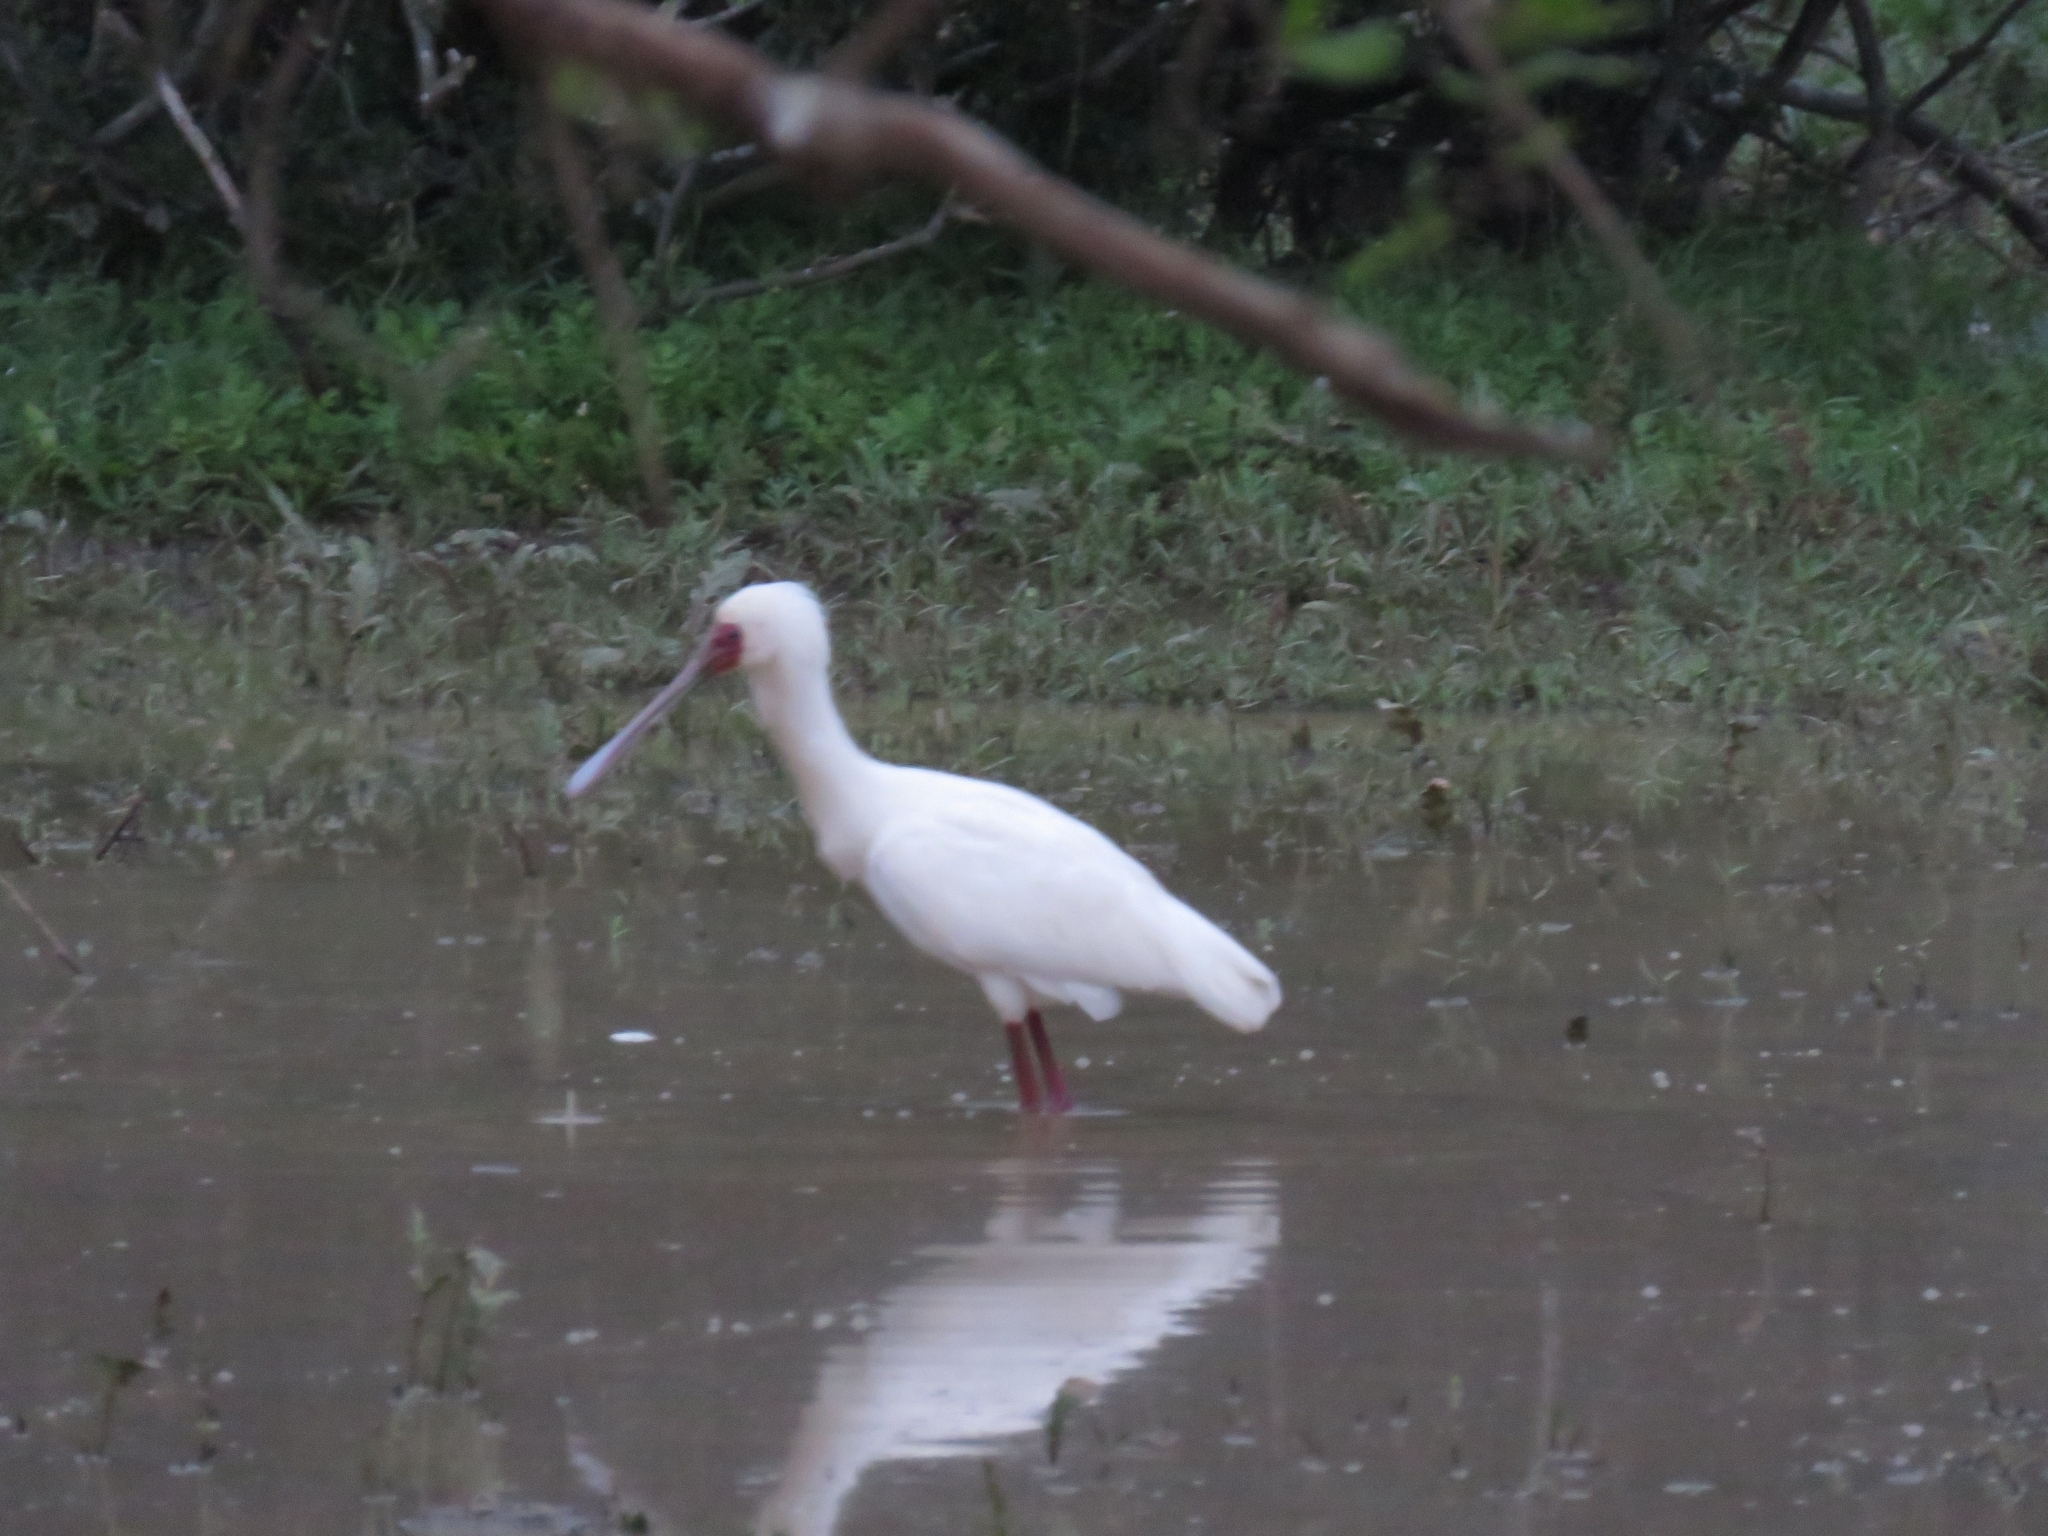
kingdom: Animalia
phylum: Chordata
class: Aves
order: Pelecaniformes
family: Threskiornithidae
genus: Platalea
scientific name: Platalea alba
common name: African spoonbill
